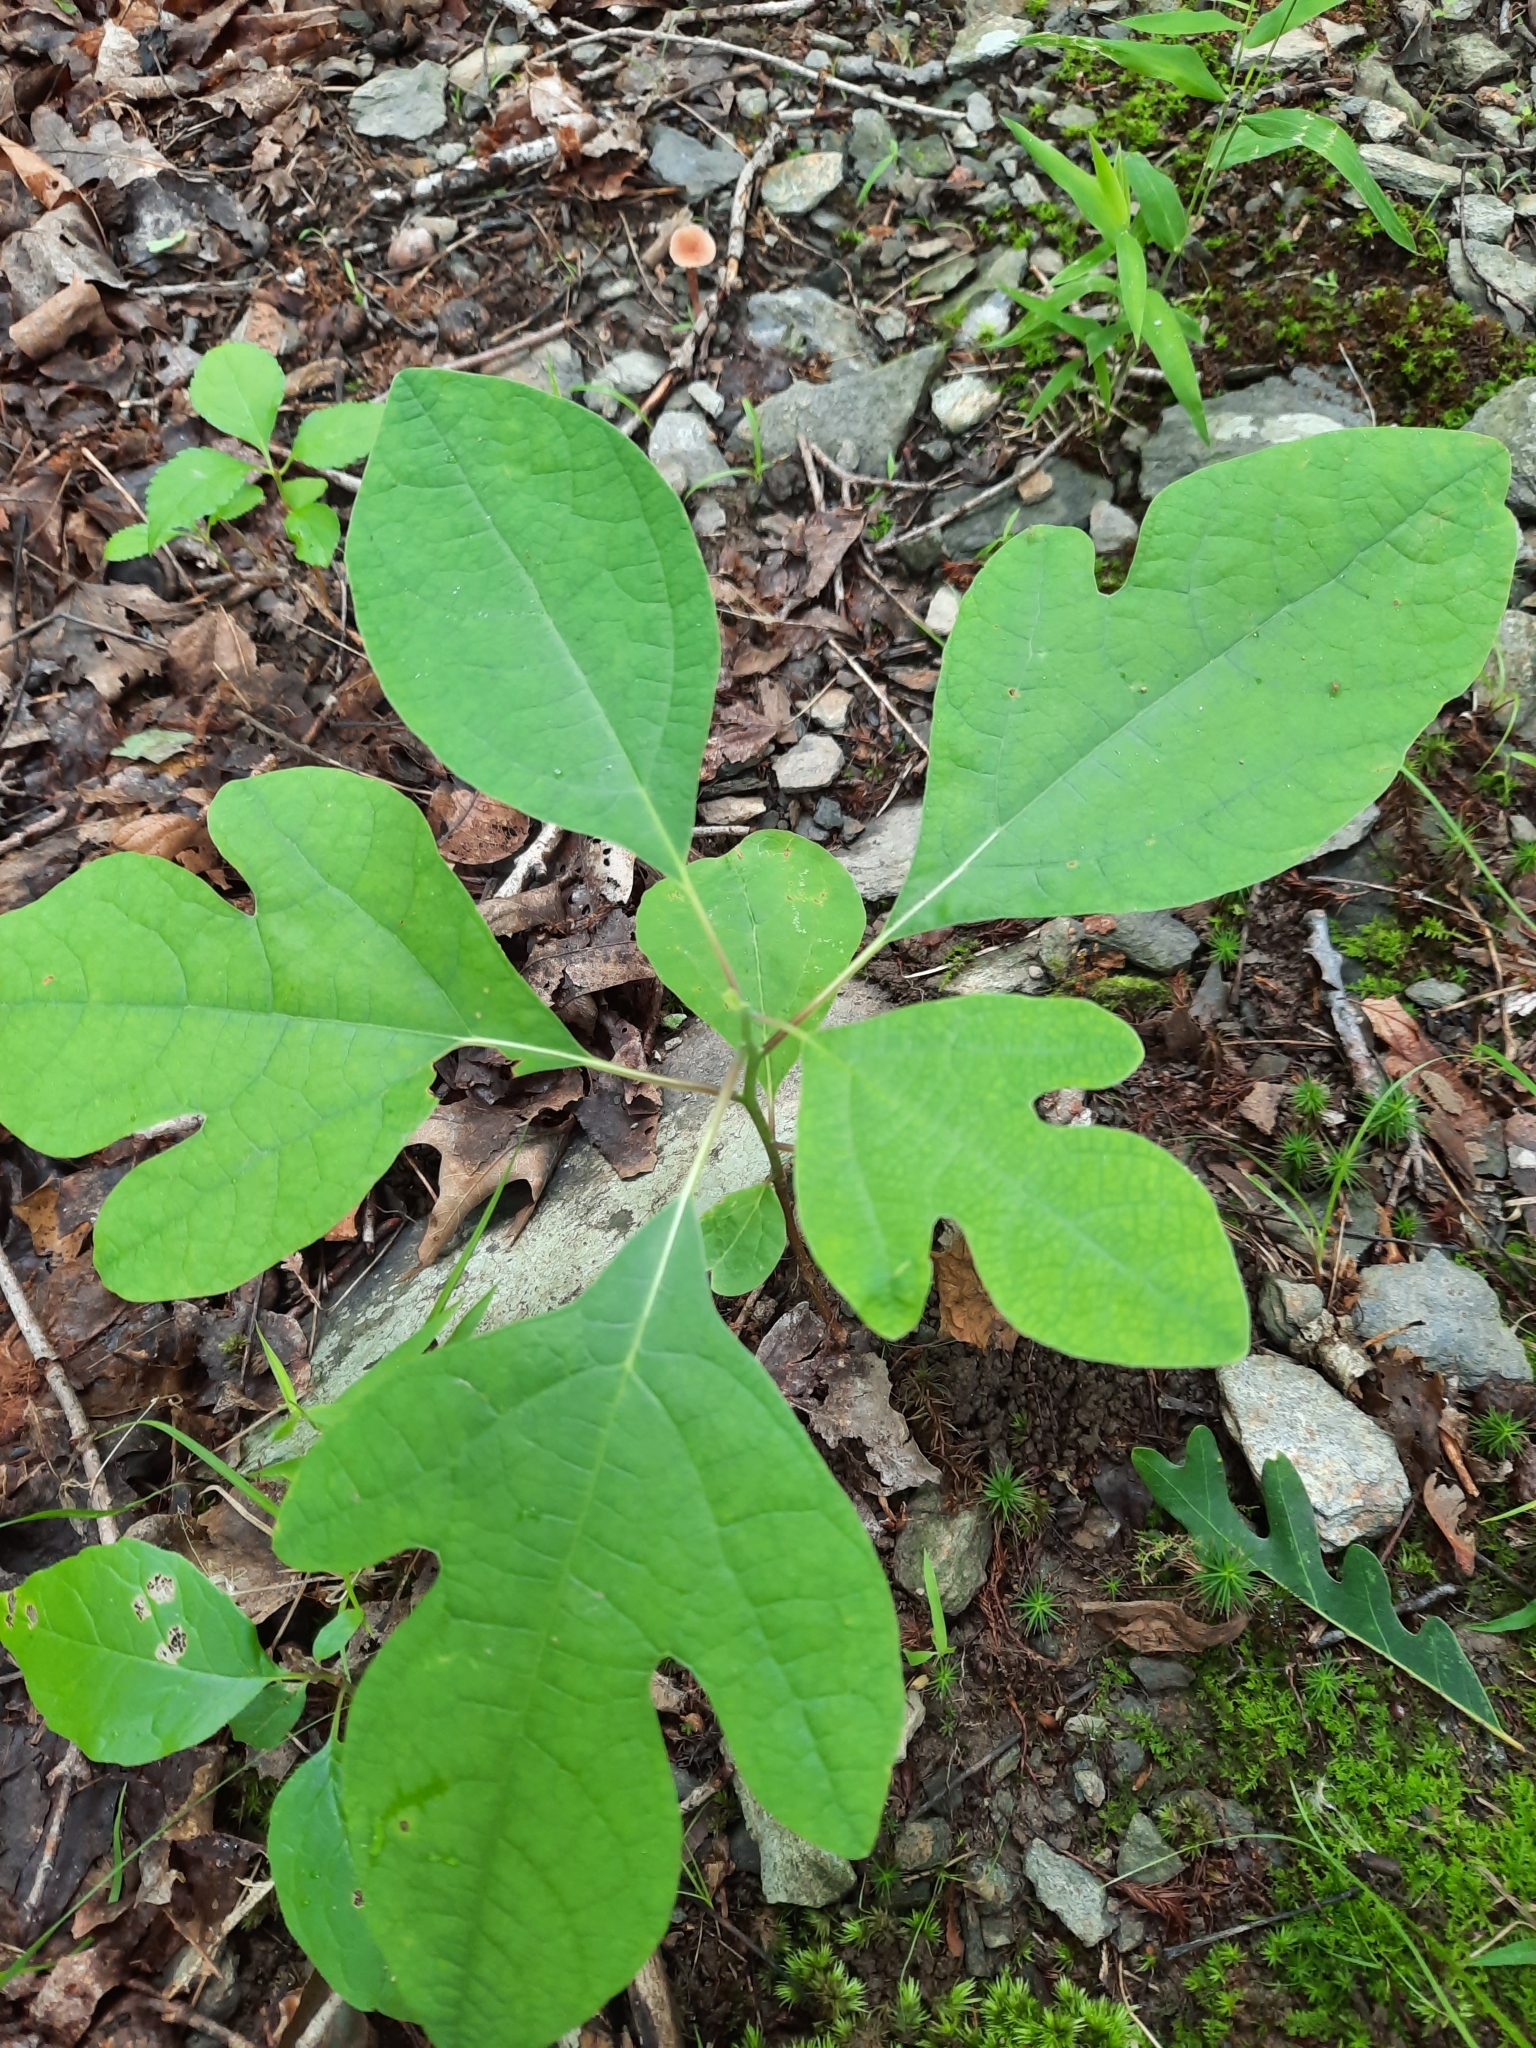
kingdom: Plantae
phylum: Tracheophyta
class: Magnoliopsida
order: Laurales
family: Lauraceae
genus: Sassafras
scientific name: Sassafras albidum
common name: Sassafras
